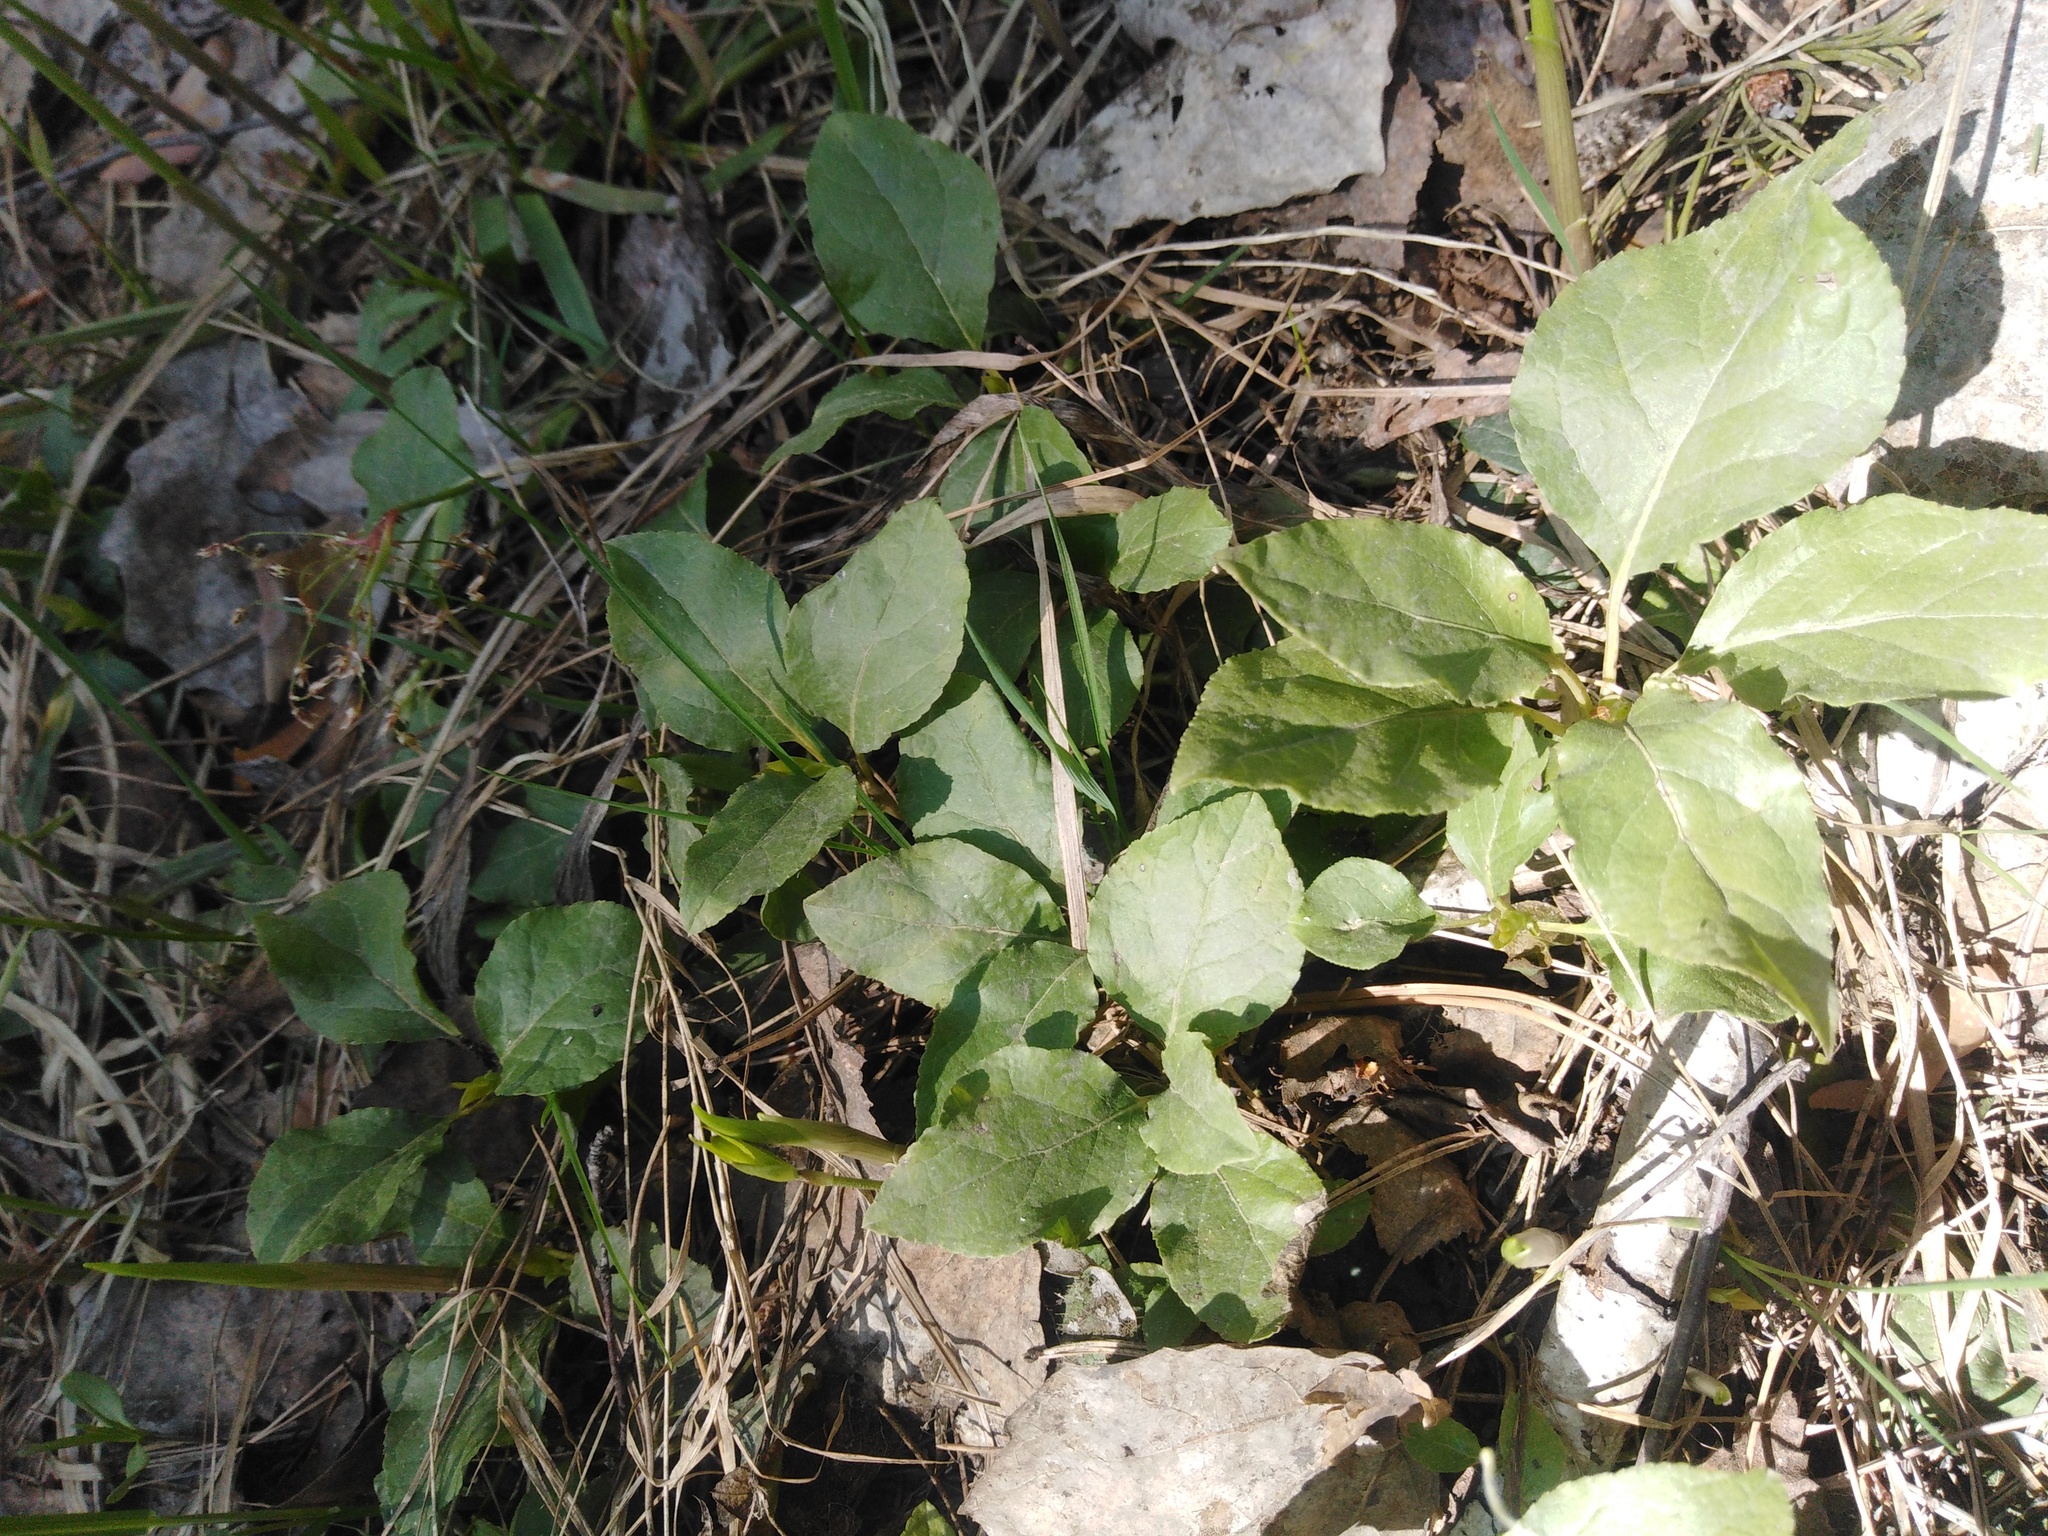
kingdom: Plantae
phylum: Tracheophyta
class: Magnoliopsida
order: Ericales
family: Ericaceae
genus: Orthilia
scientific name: Orthilia secunda
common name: One-sided orthilia
